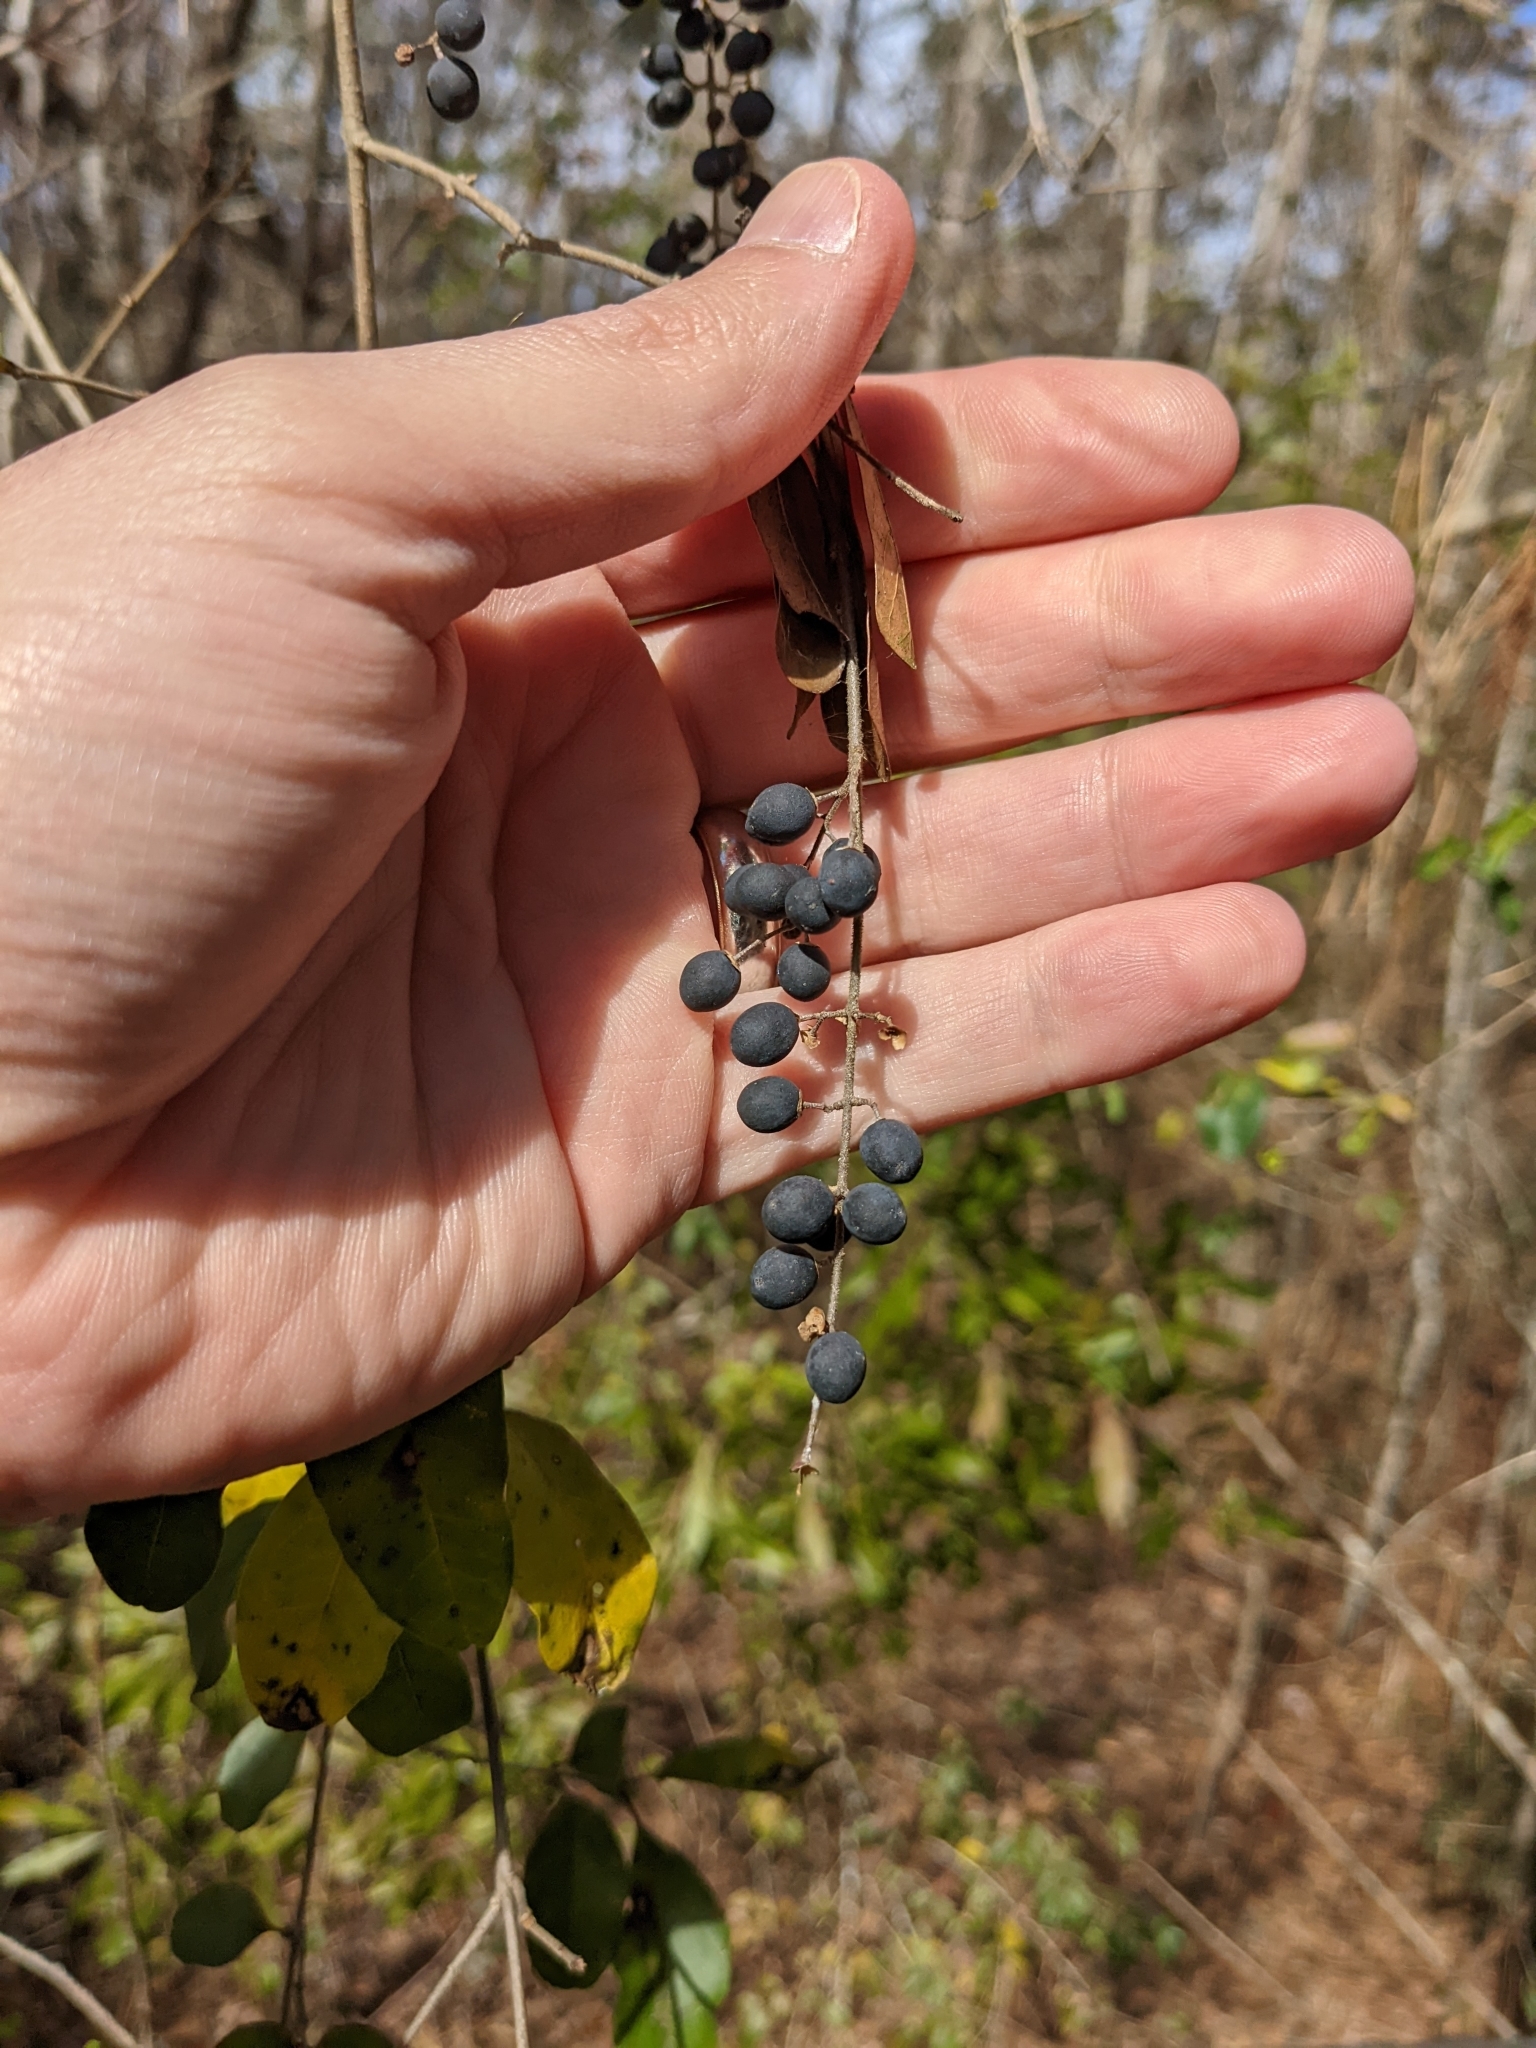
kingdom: Plantae
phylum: Tracheophyta
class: Magnoliopsida
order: Lamiales
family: Oleaceae
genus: Ligustrum
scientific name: Ligustrum sinense
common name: Chinese privet
